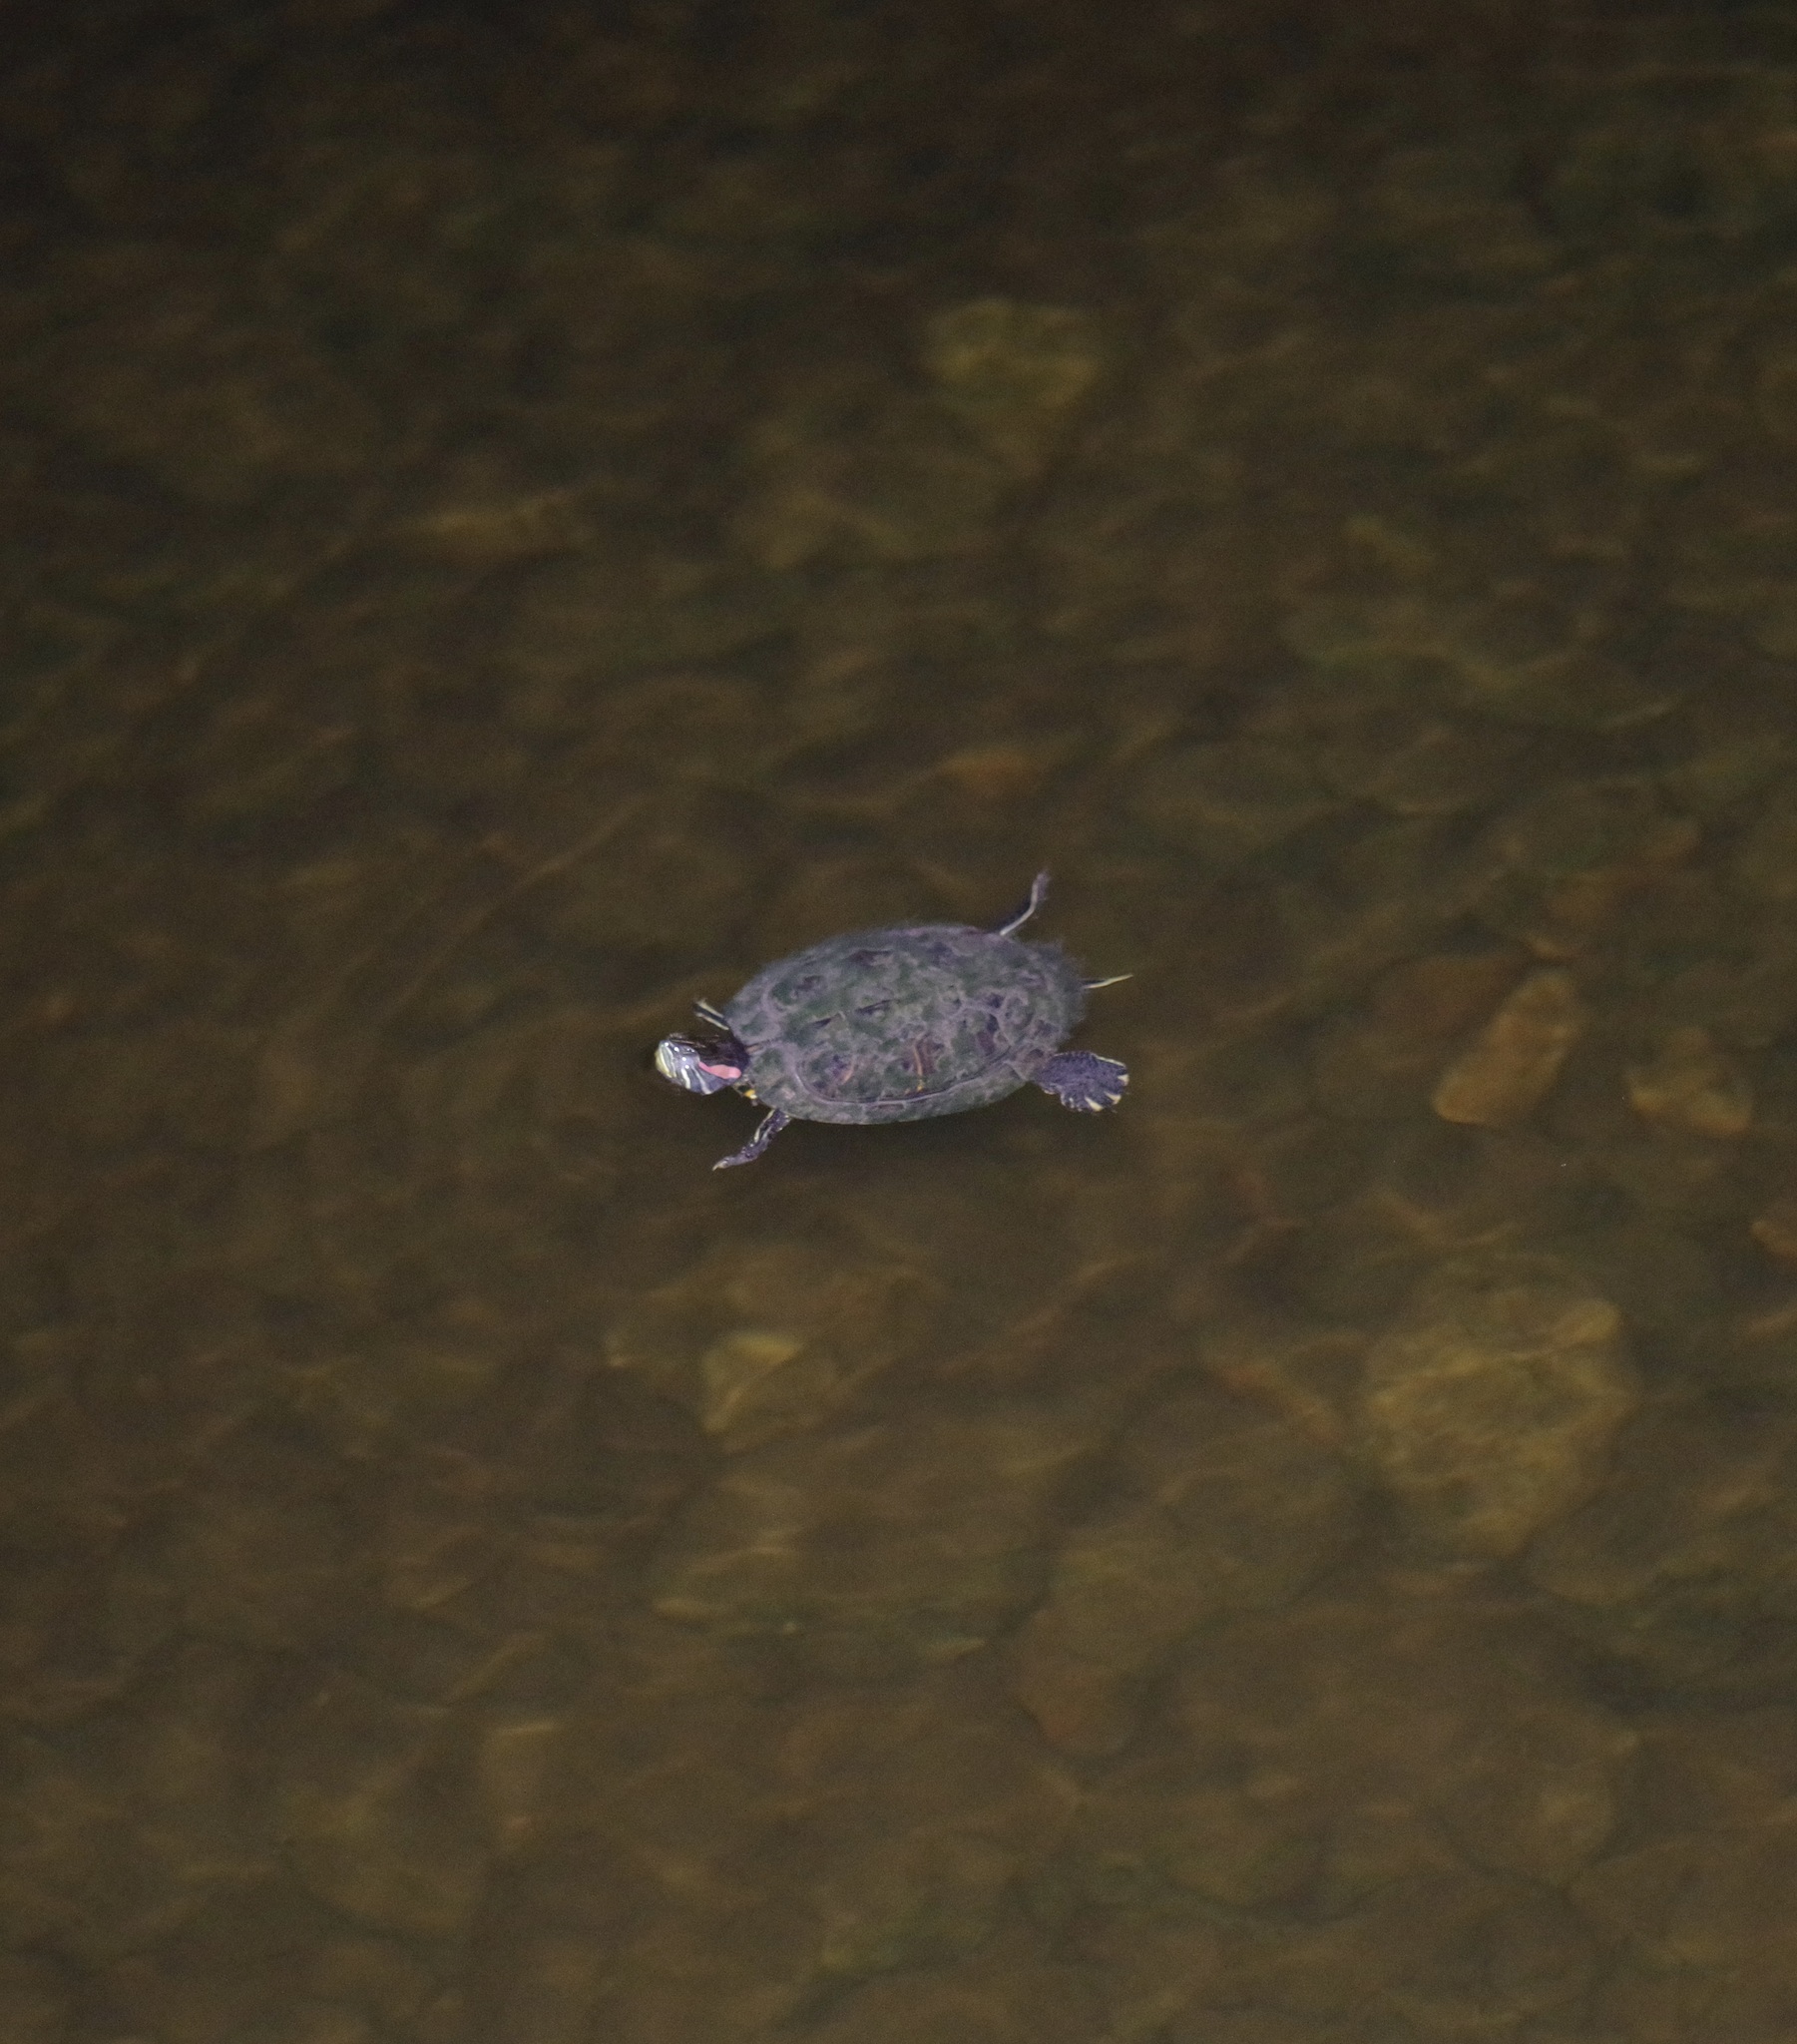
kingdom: Animalia
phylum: Chordata
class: Testudines
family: Emydidae
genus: Trachemys
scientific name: Trachemys scripta
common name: Slider
